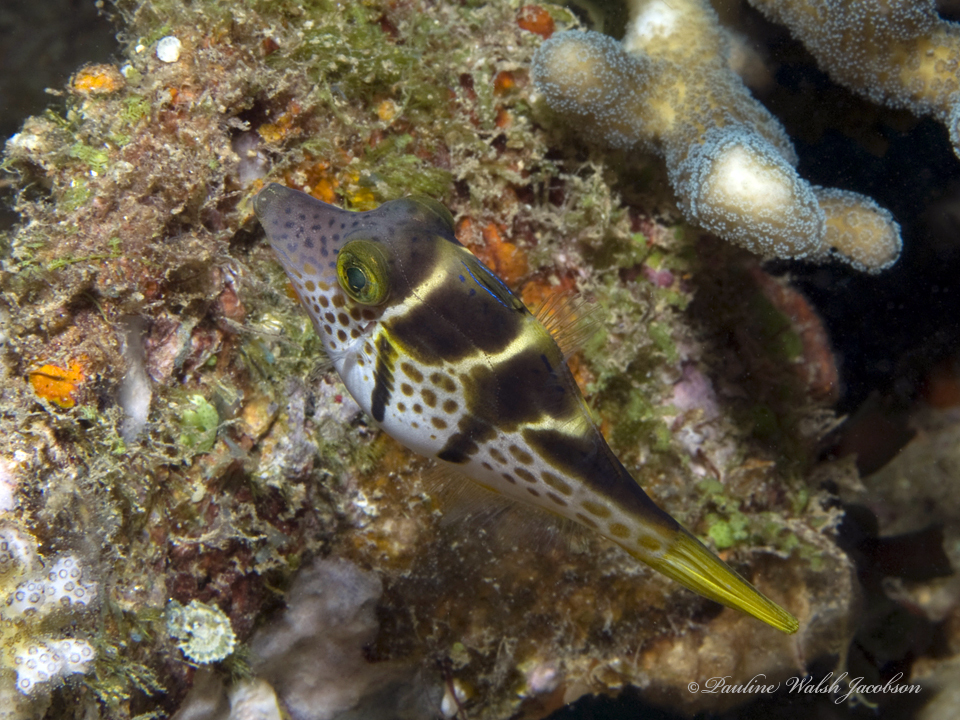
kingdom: Animalia
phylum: Chordata
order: Tetraodontiformes
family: Monacanthidae
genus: Paraluteres
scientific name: Paraluteres prionurus
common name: Black-saddled leatherjacket
